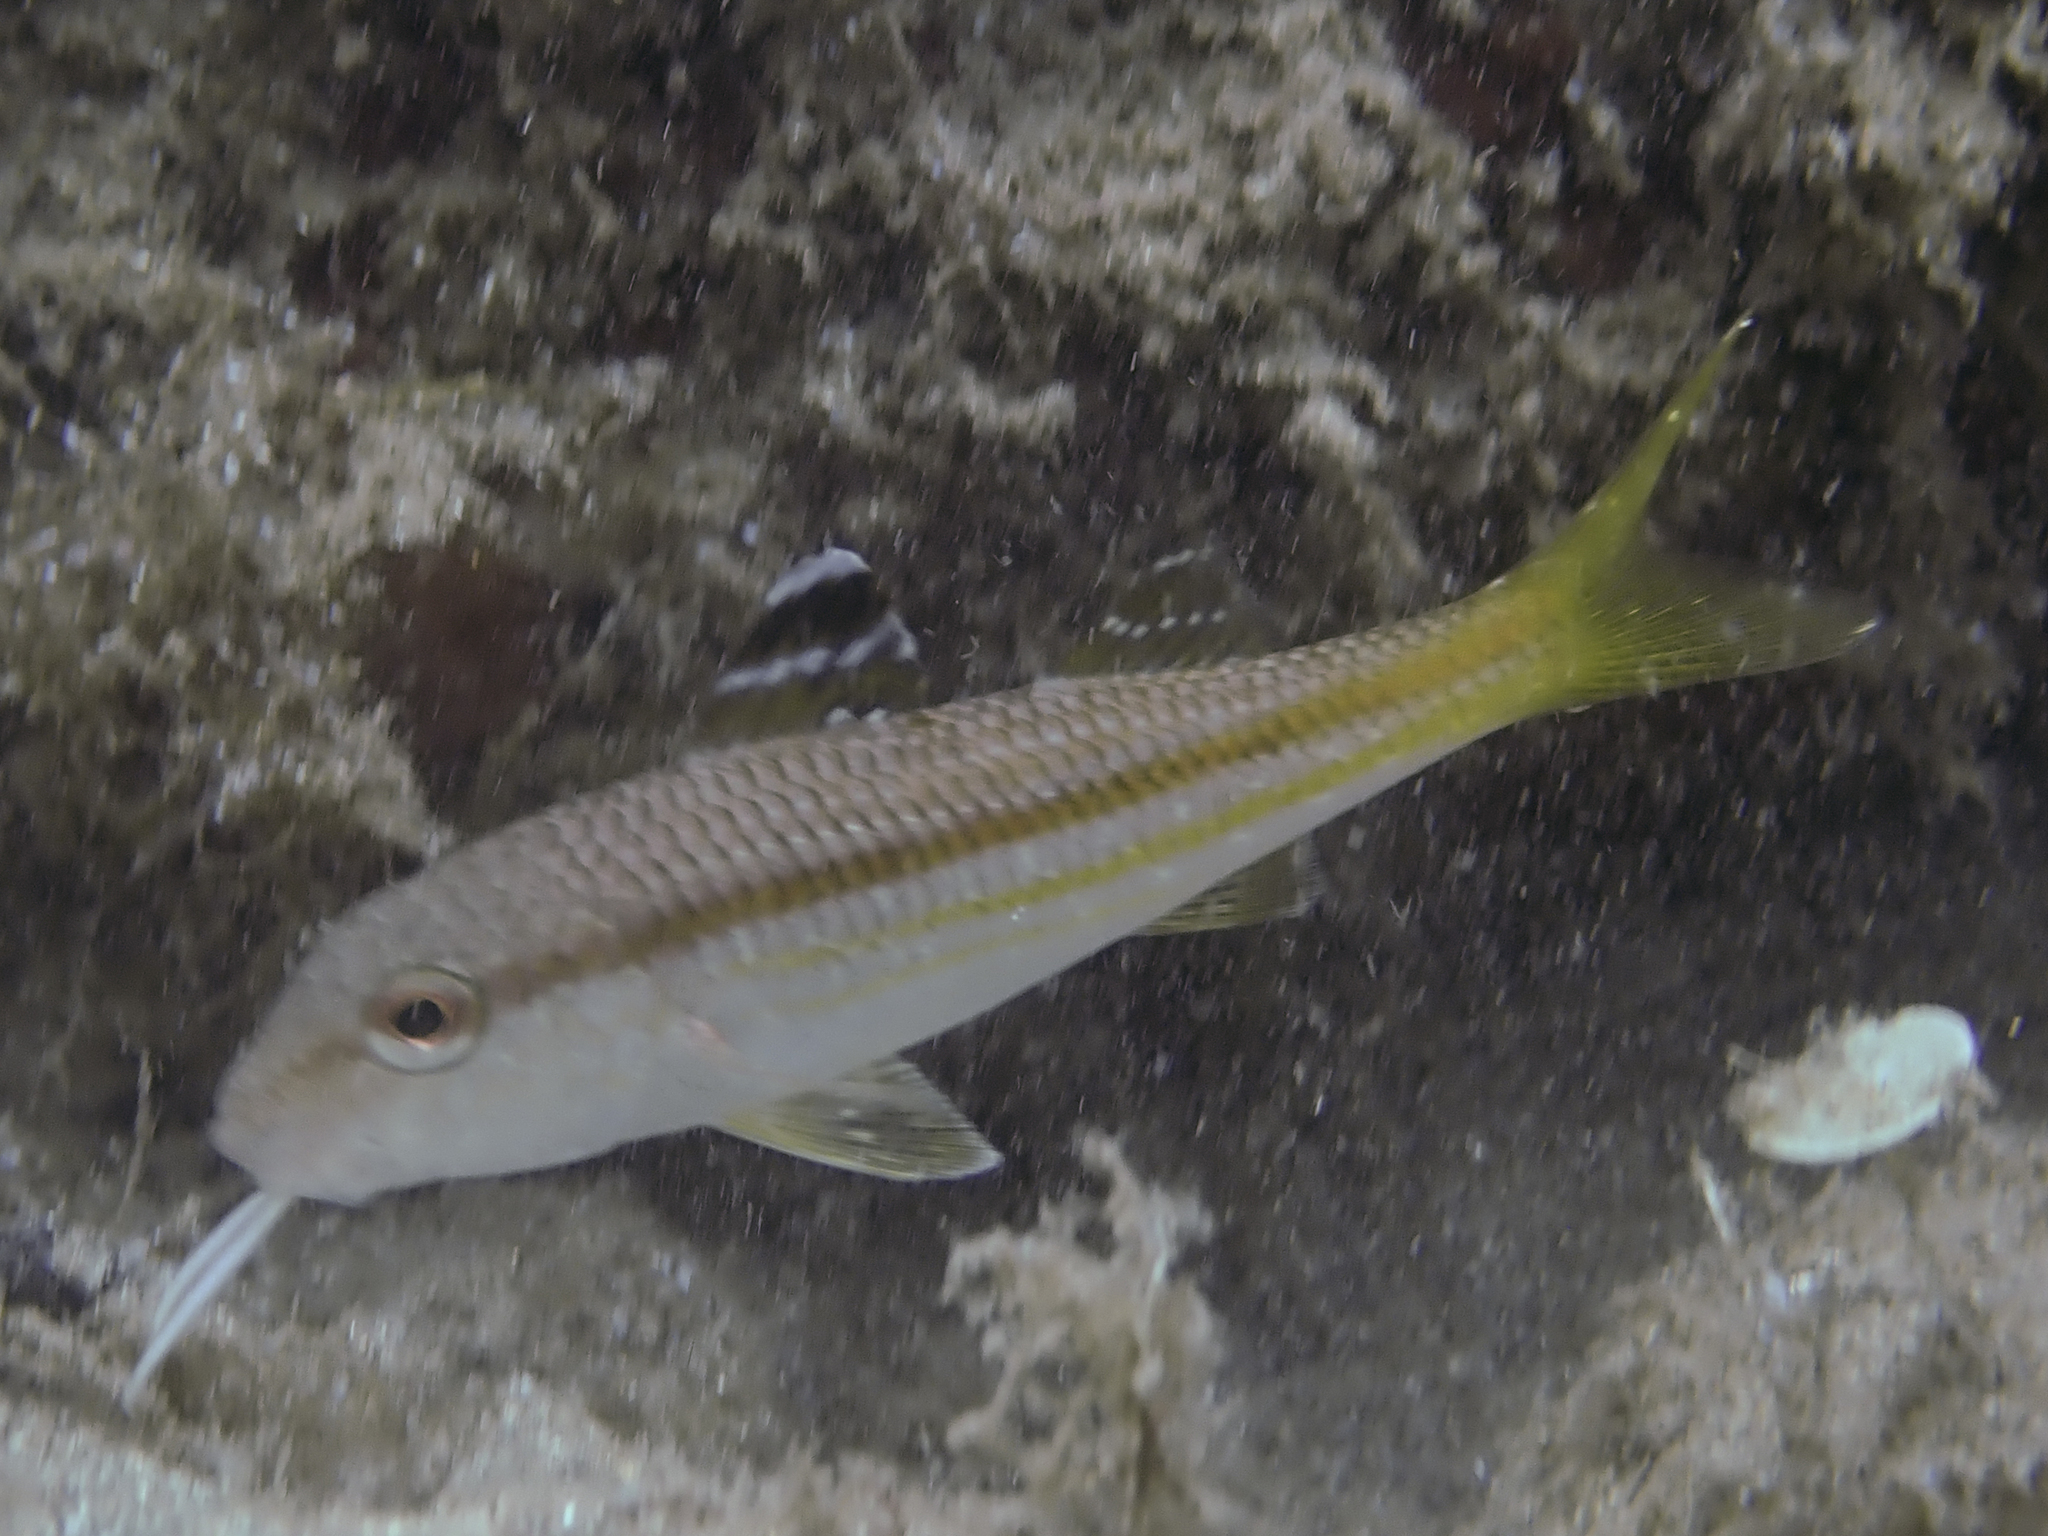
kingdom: Animalia
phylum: Chordata
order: Perciformes
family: Mullidae
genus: Mullus
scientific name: Mullus surmuletus
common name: Red mullet
